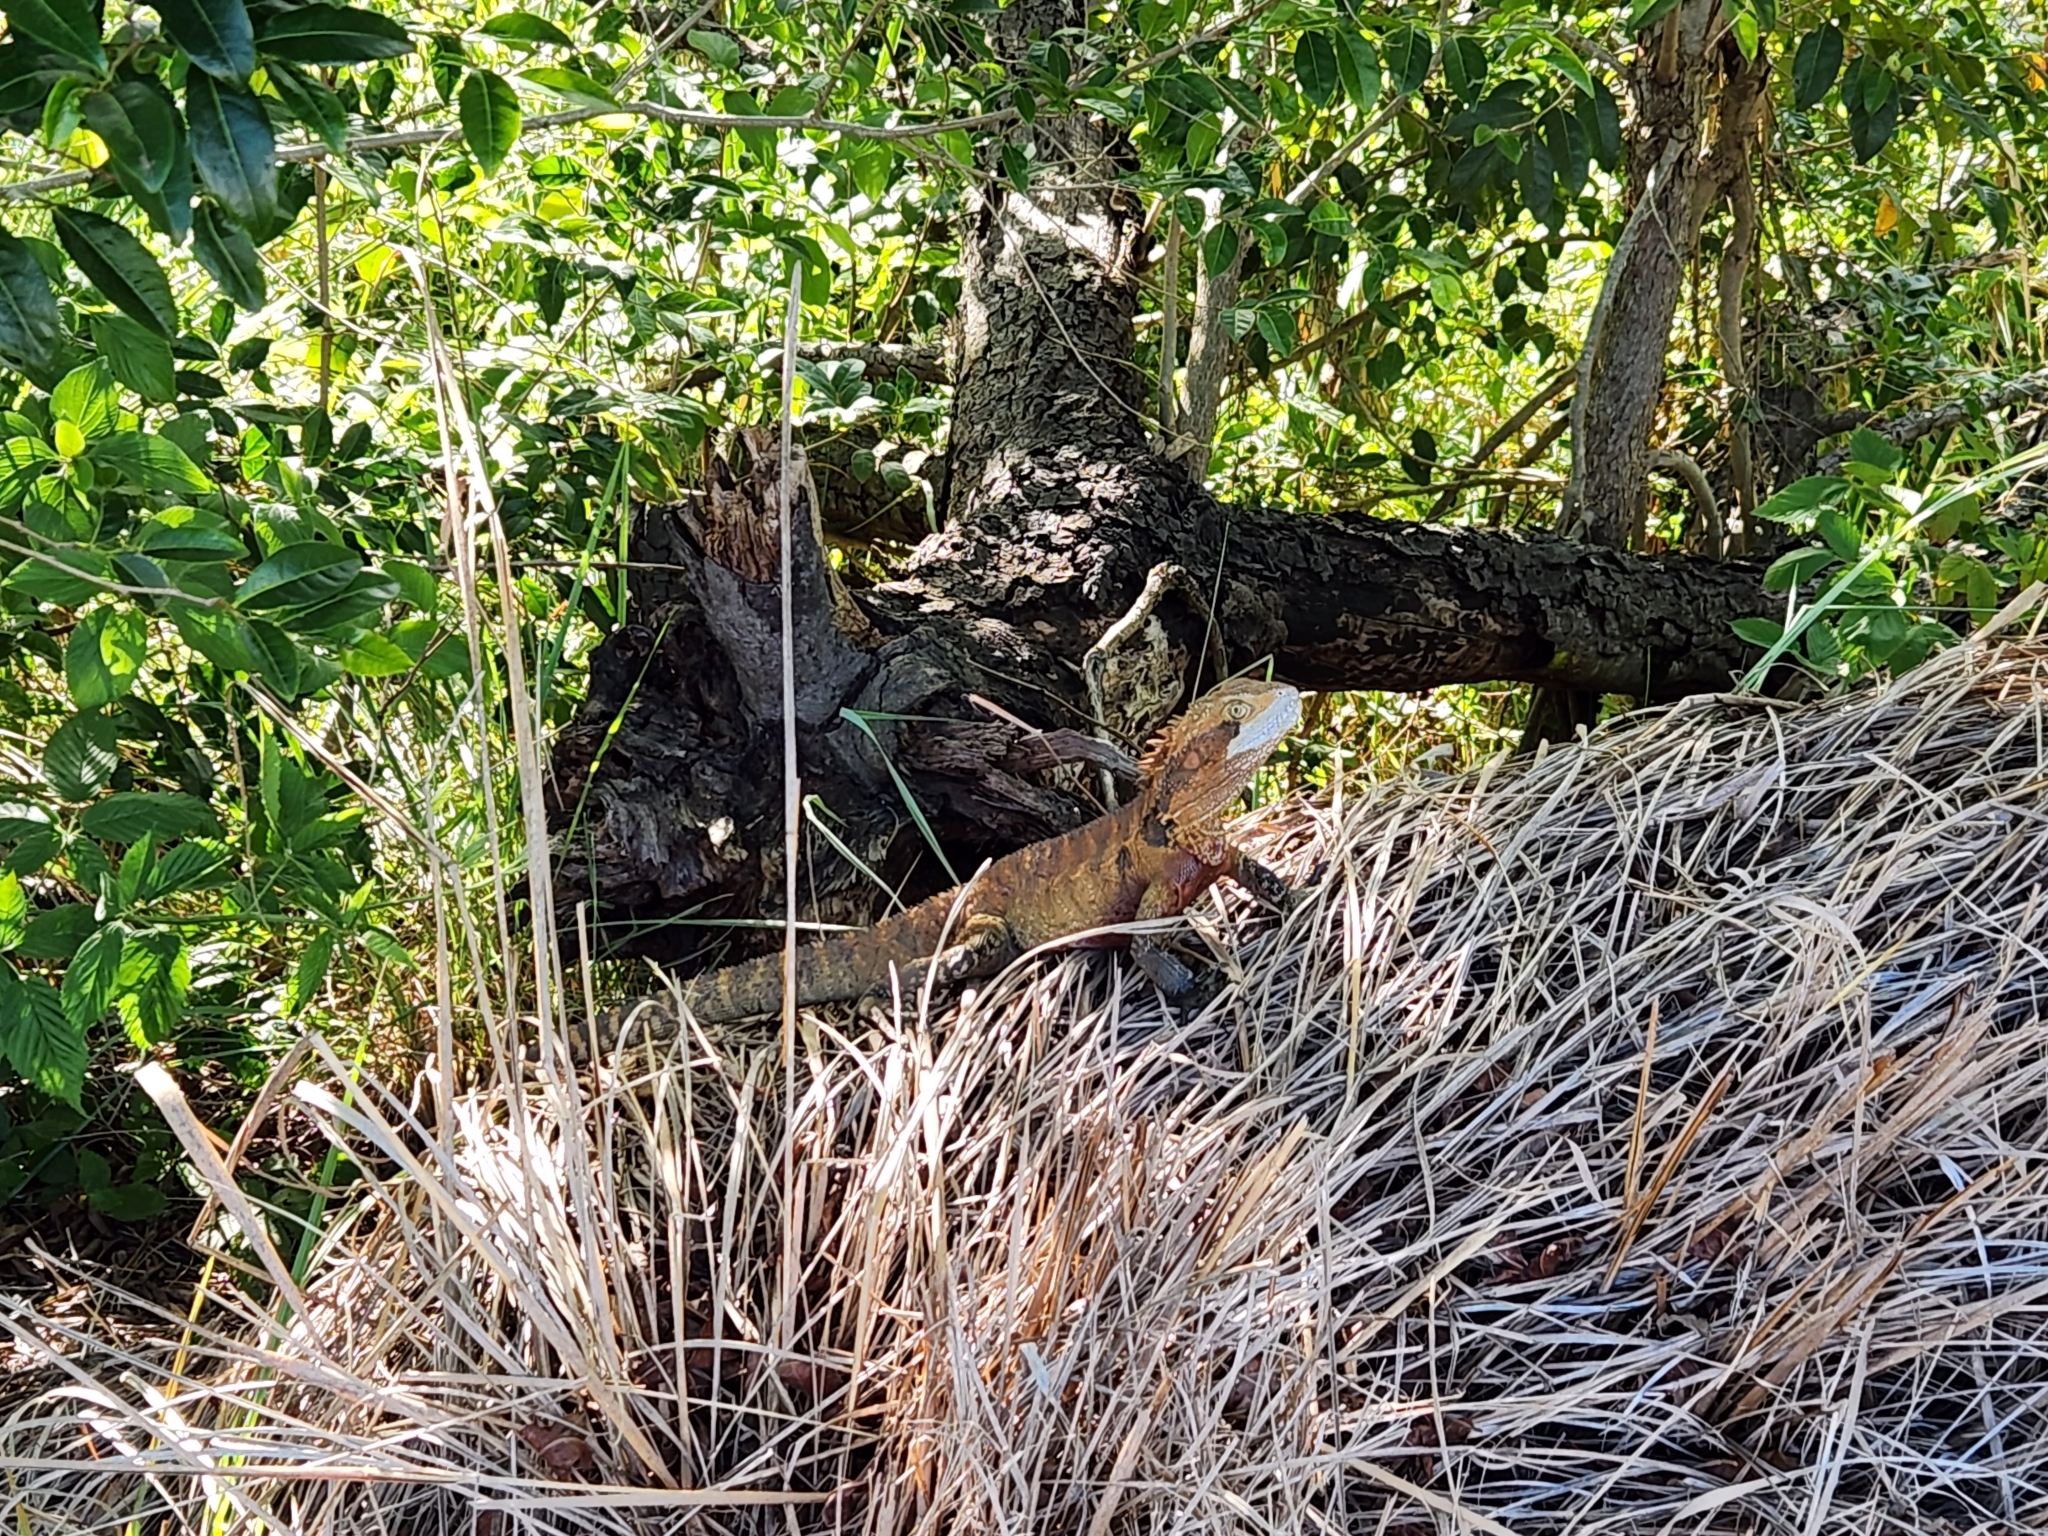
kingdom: Animalia
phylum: Chordata
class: Squamata
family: Agamidae
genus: Intellagama
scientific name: Intellagama lesueurii
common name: Eastern water dragon
